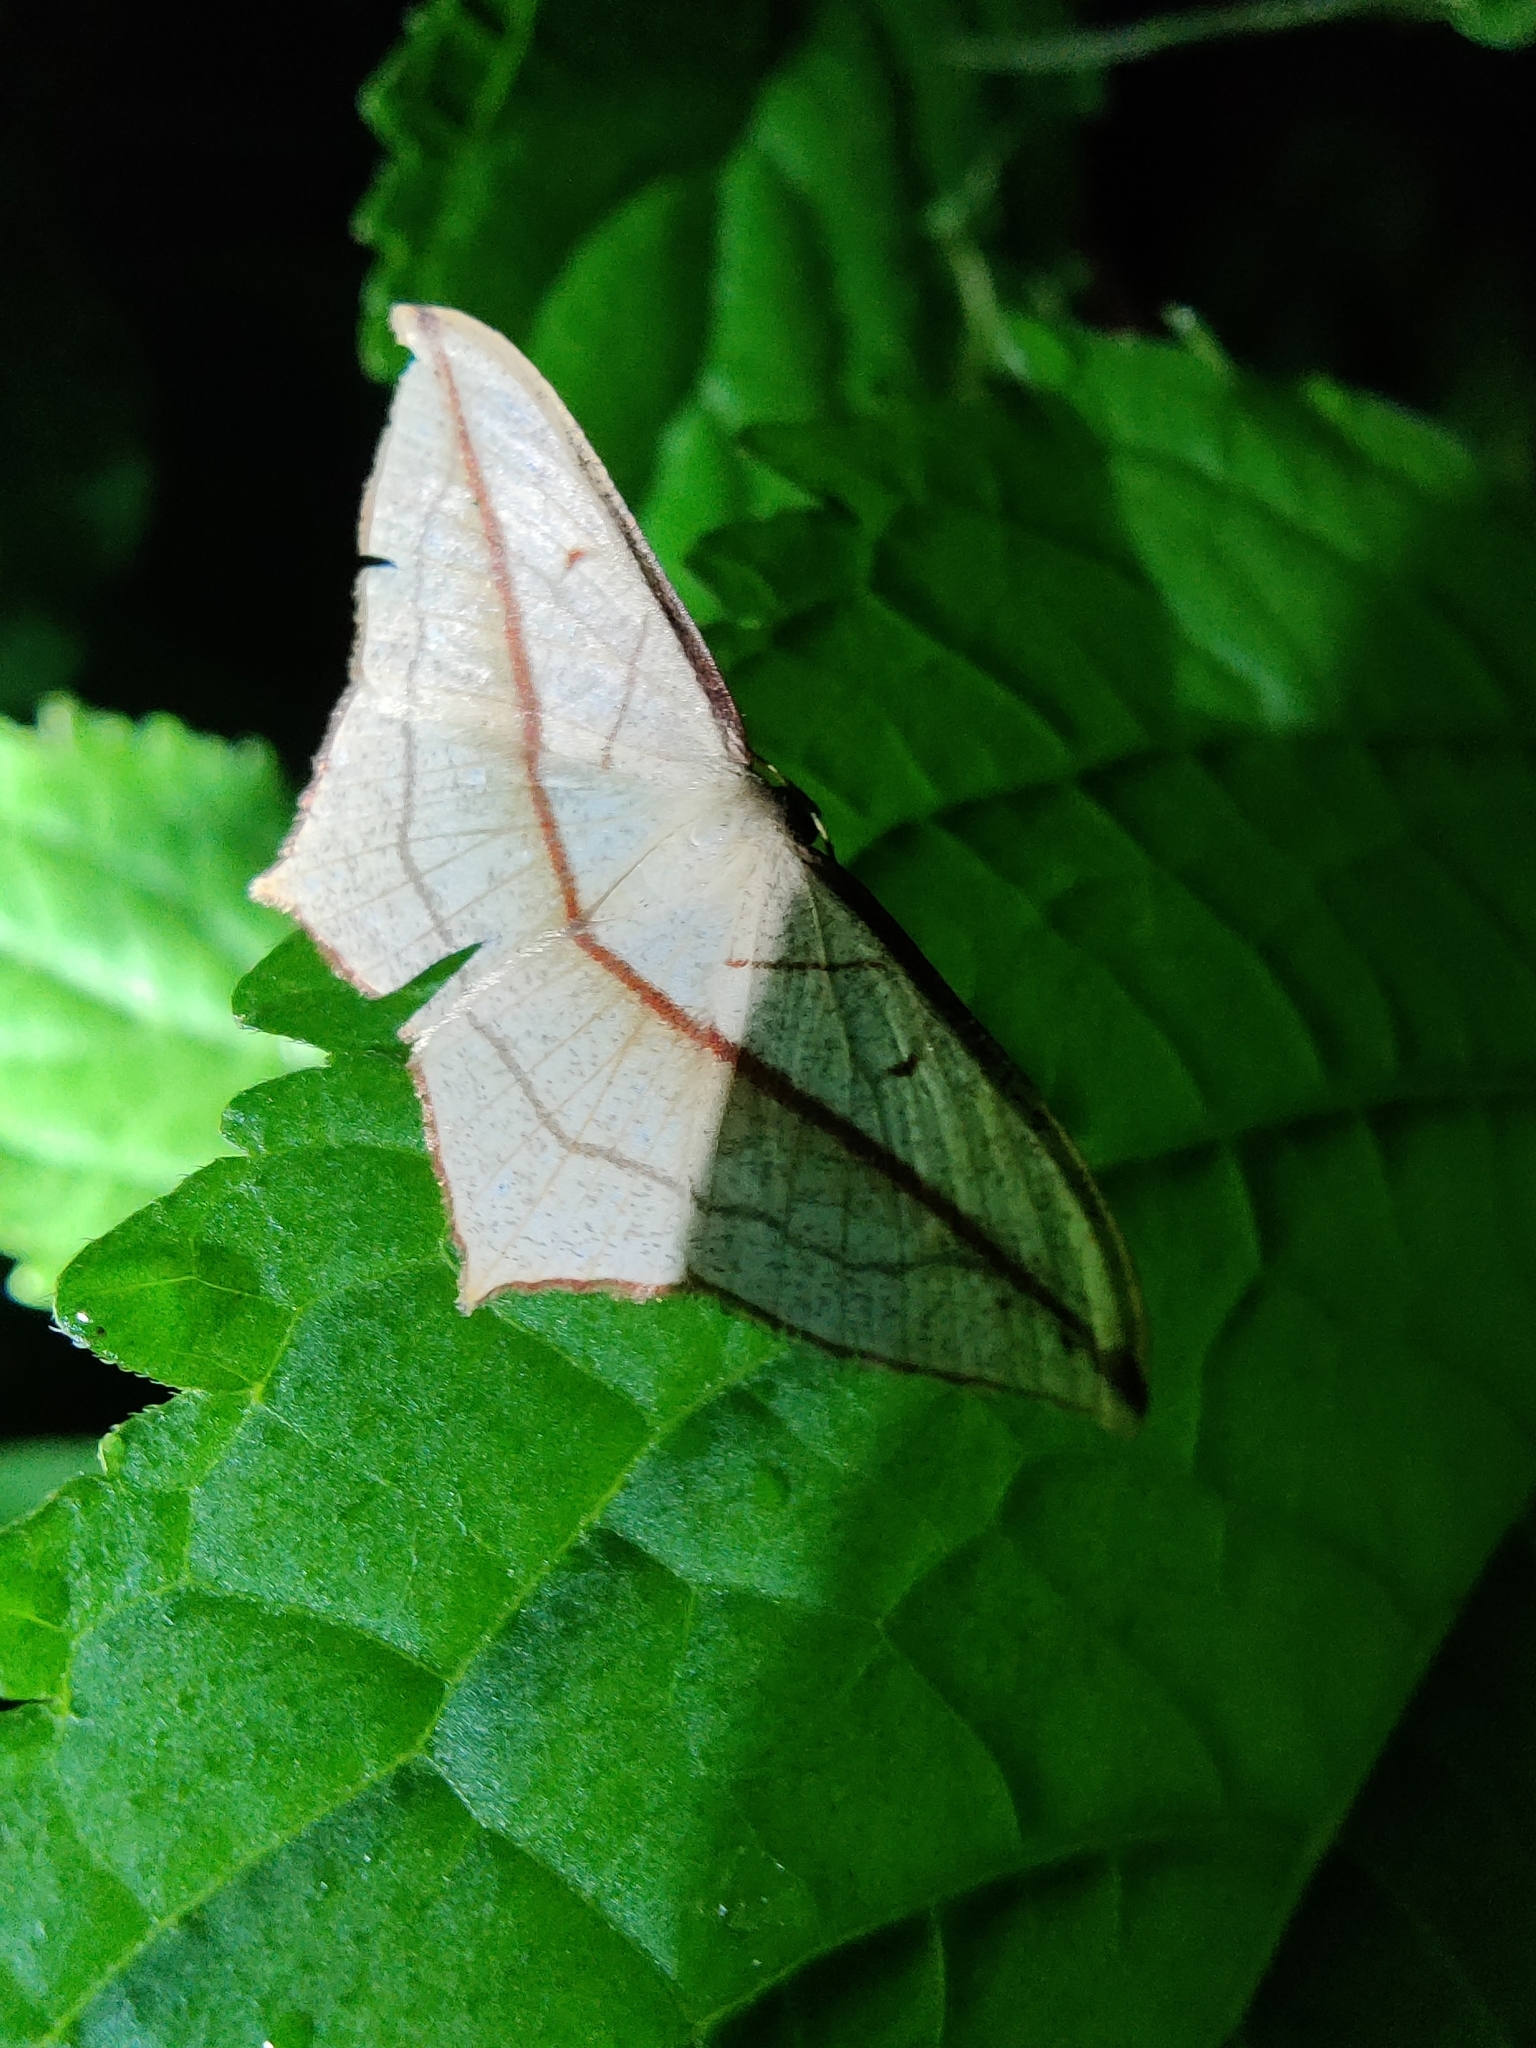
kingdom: Animalia
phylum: Arthropoda
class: Insecta
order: Lepidoptera
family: Geometridae
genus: Timandra
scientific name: Timandra correspondens
